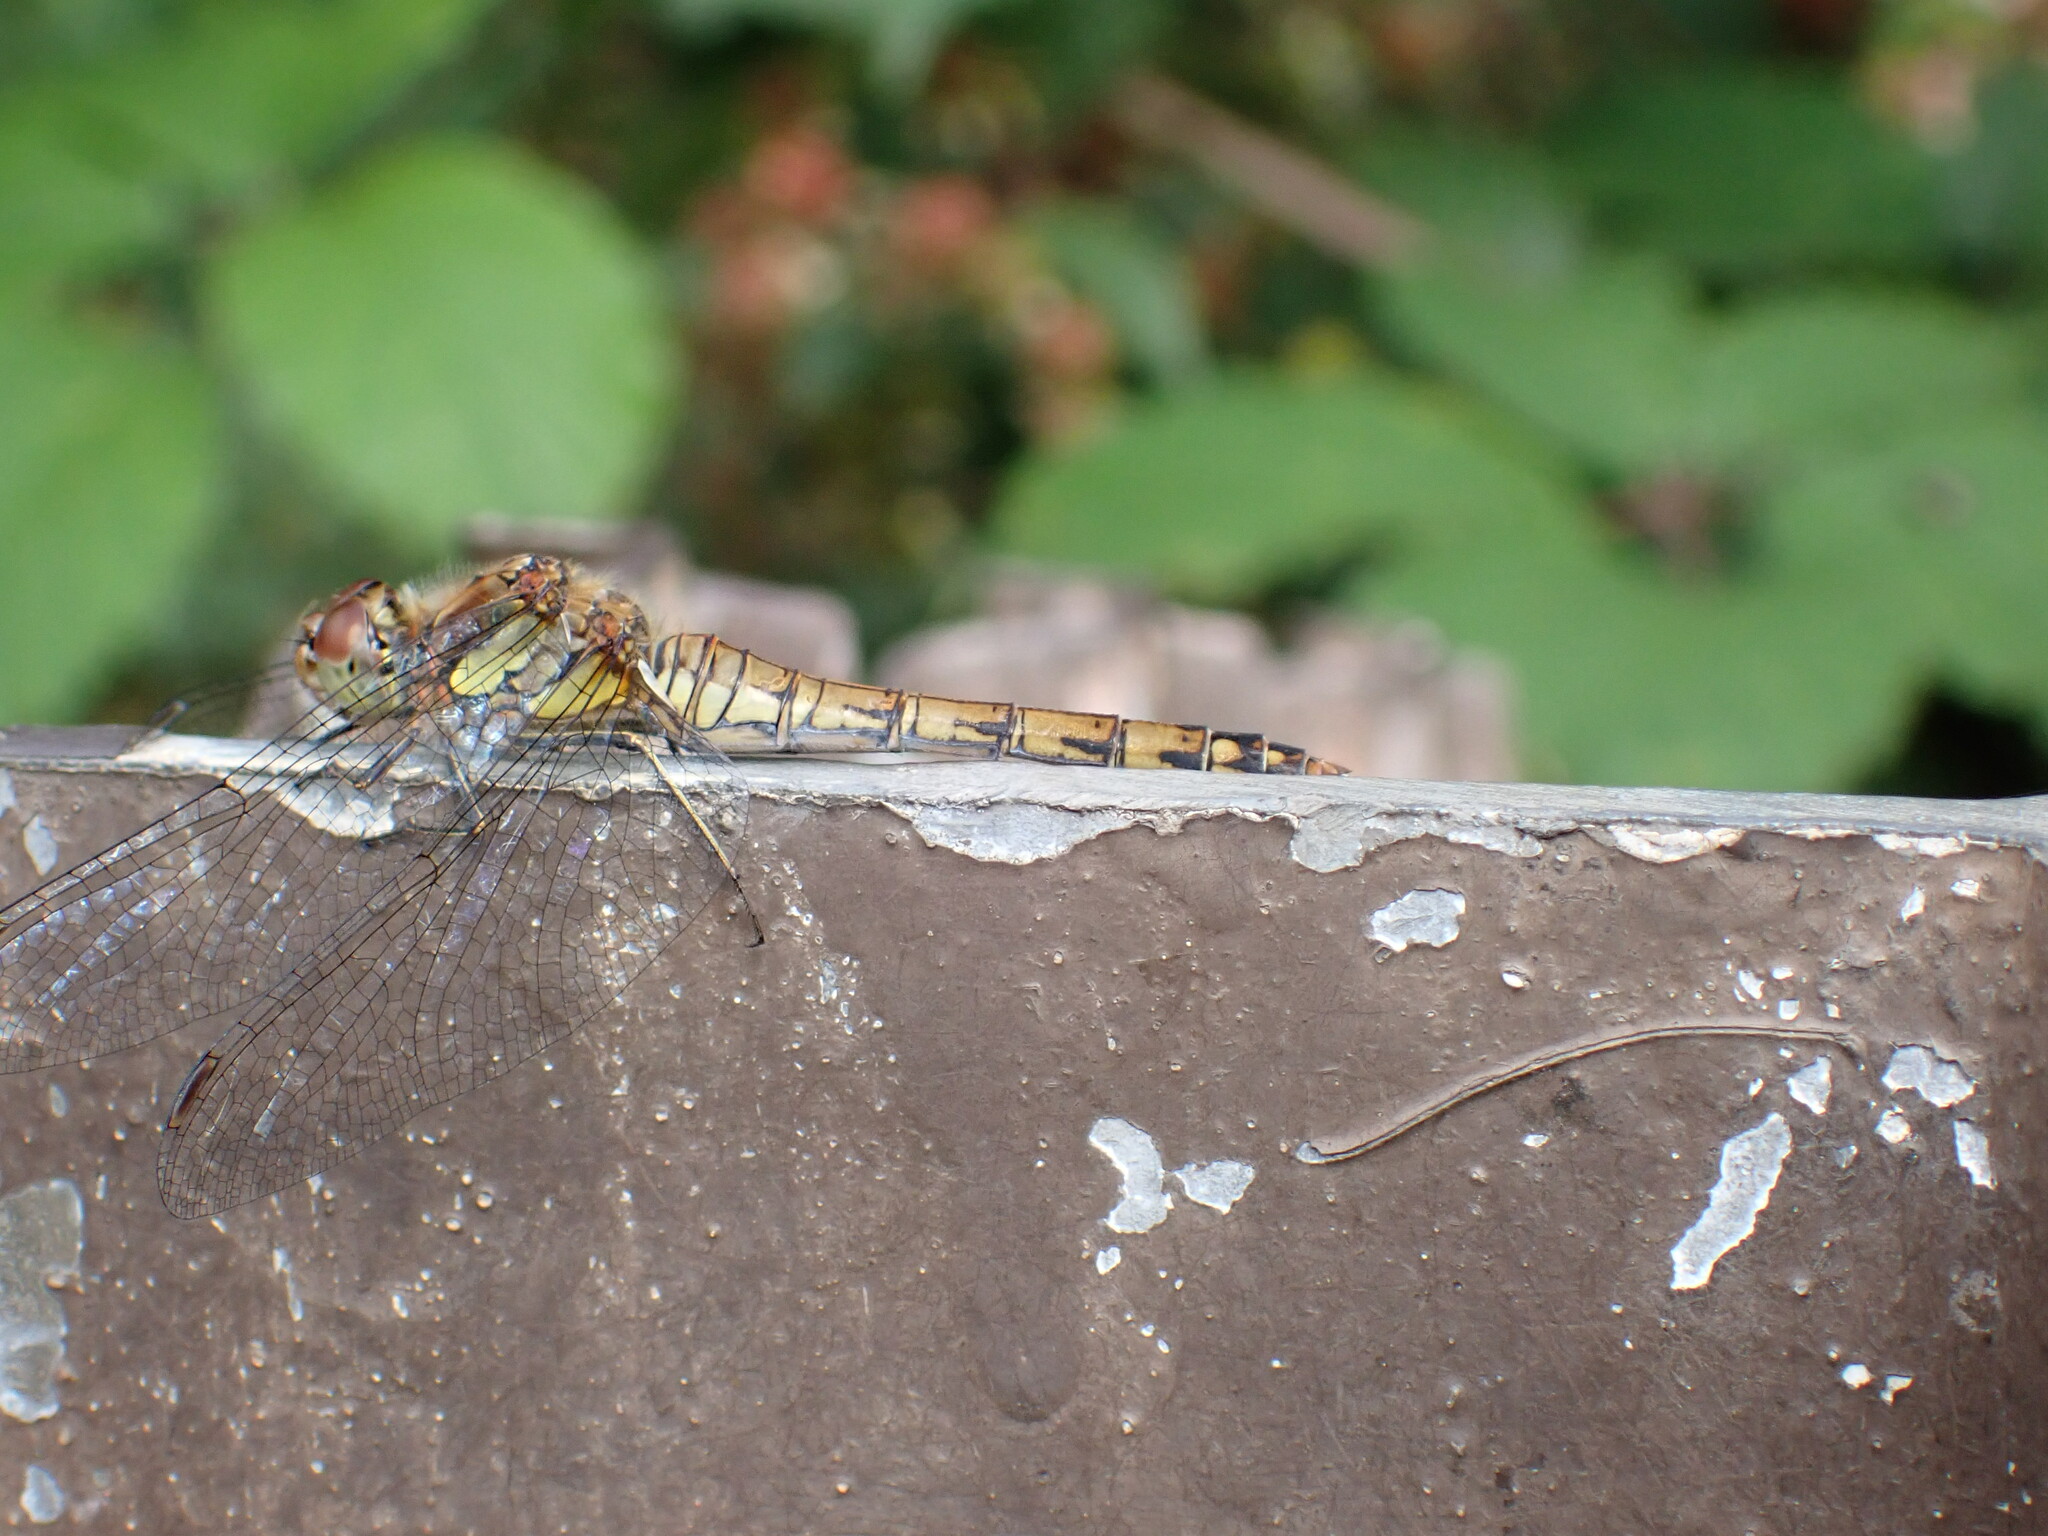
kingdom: Animalia
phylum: Arthropoda
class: Insecta
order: Odonata
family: Libellulidae
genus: Sympetrum
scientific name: Sympetrum striolatum
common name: Common darter
